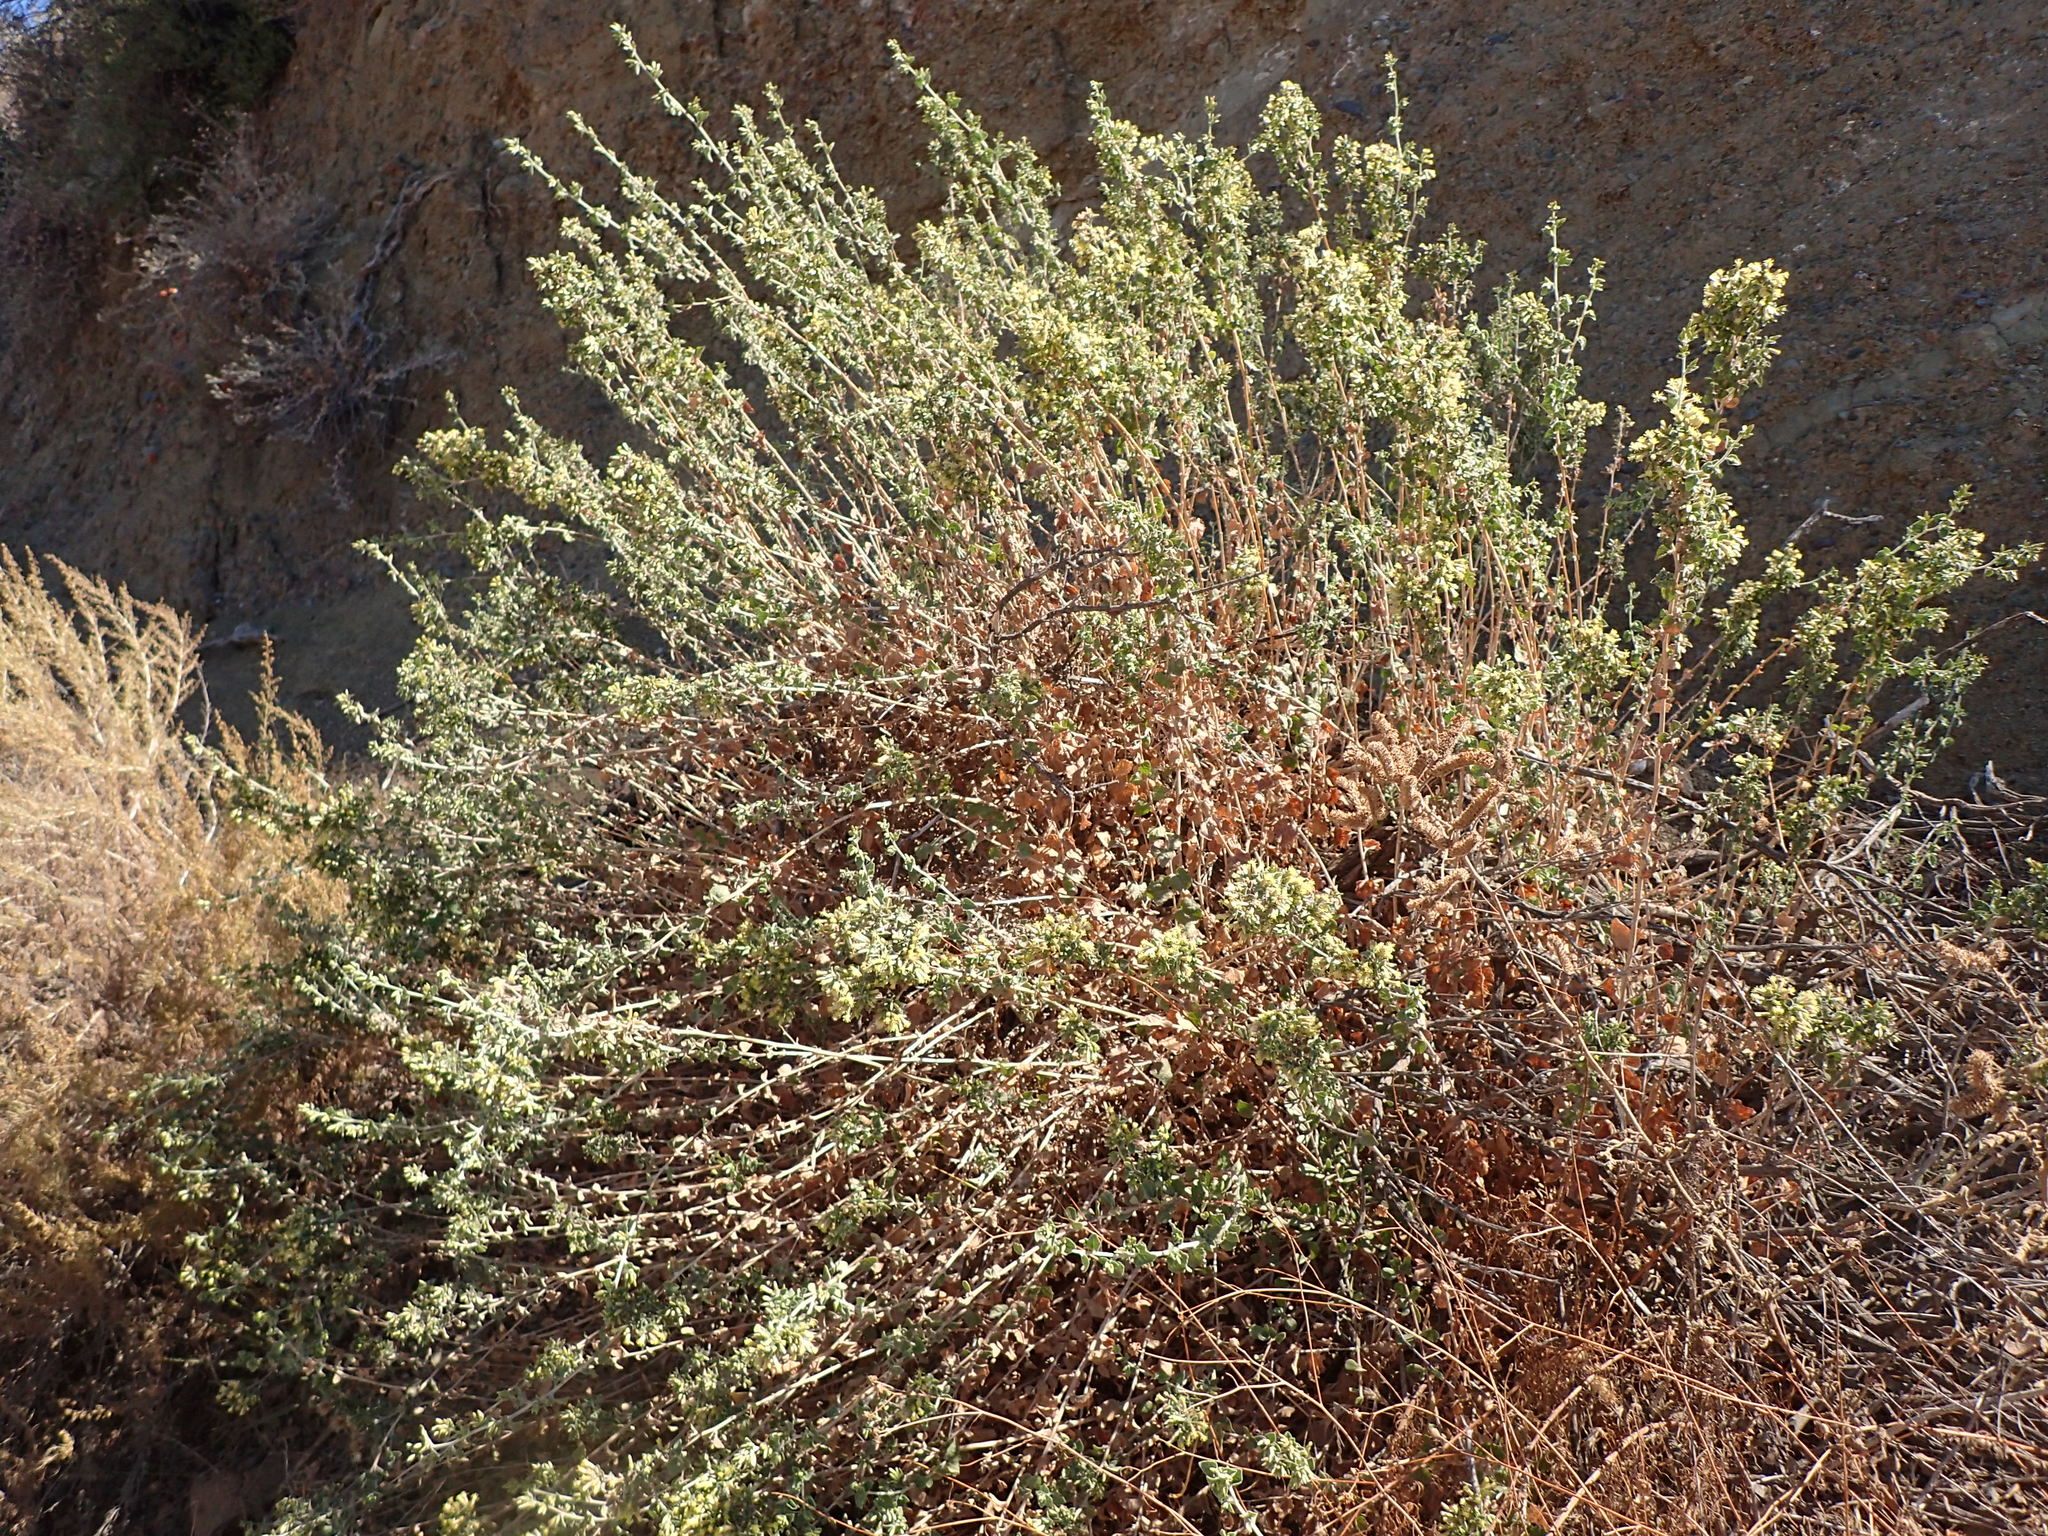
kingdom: Plantae
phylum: Tracheophyta
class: Magnoliopsida
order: Asterales
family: Asteraceae
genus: Brickellia
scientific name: Brickellia californica
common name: California brickellbush
